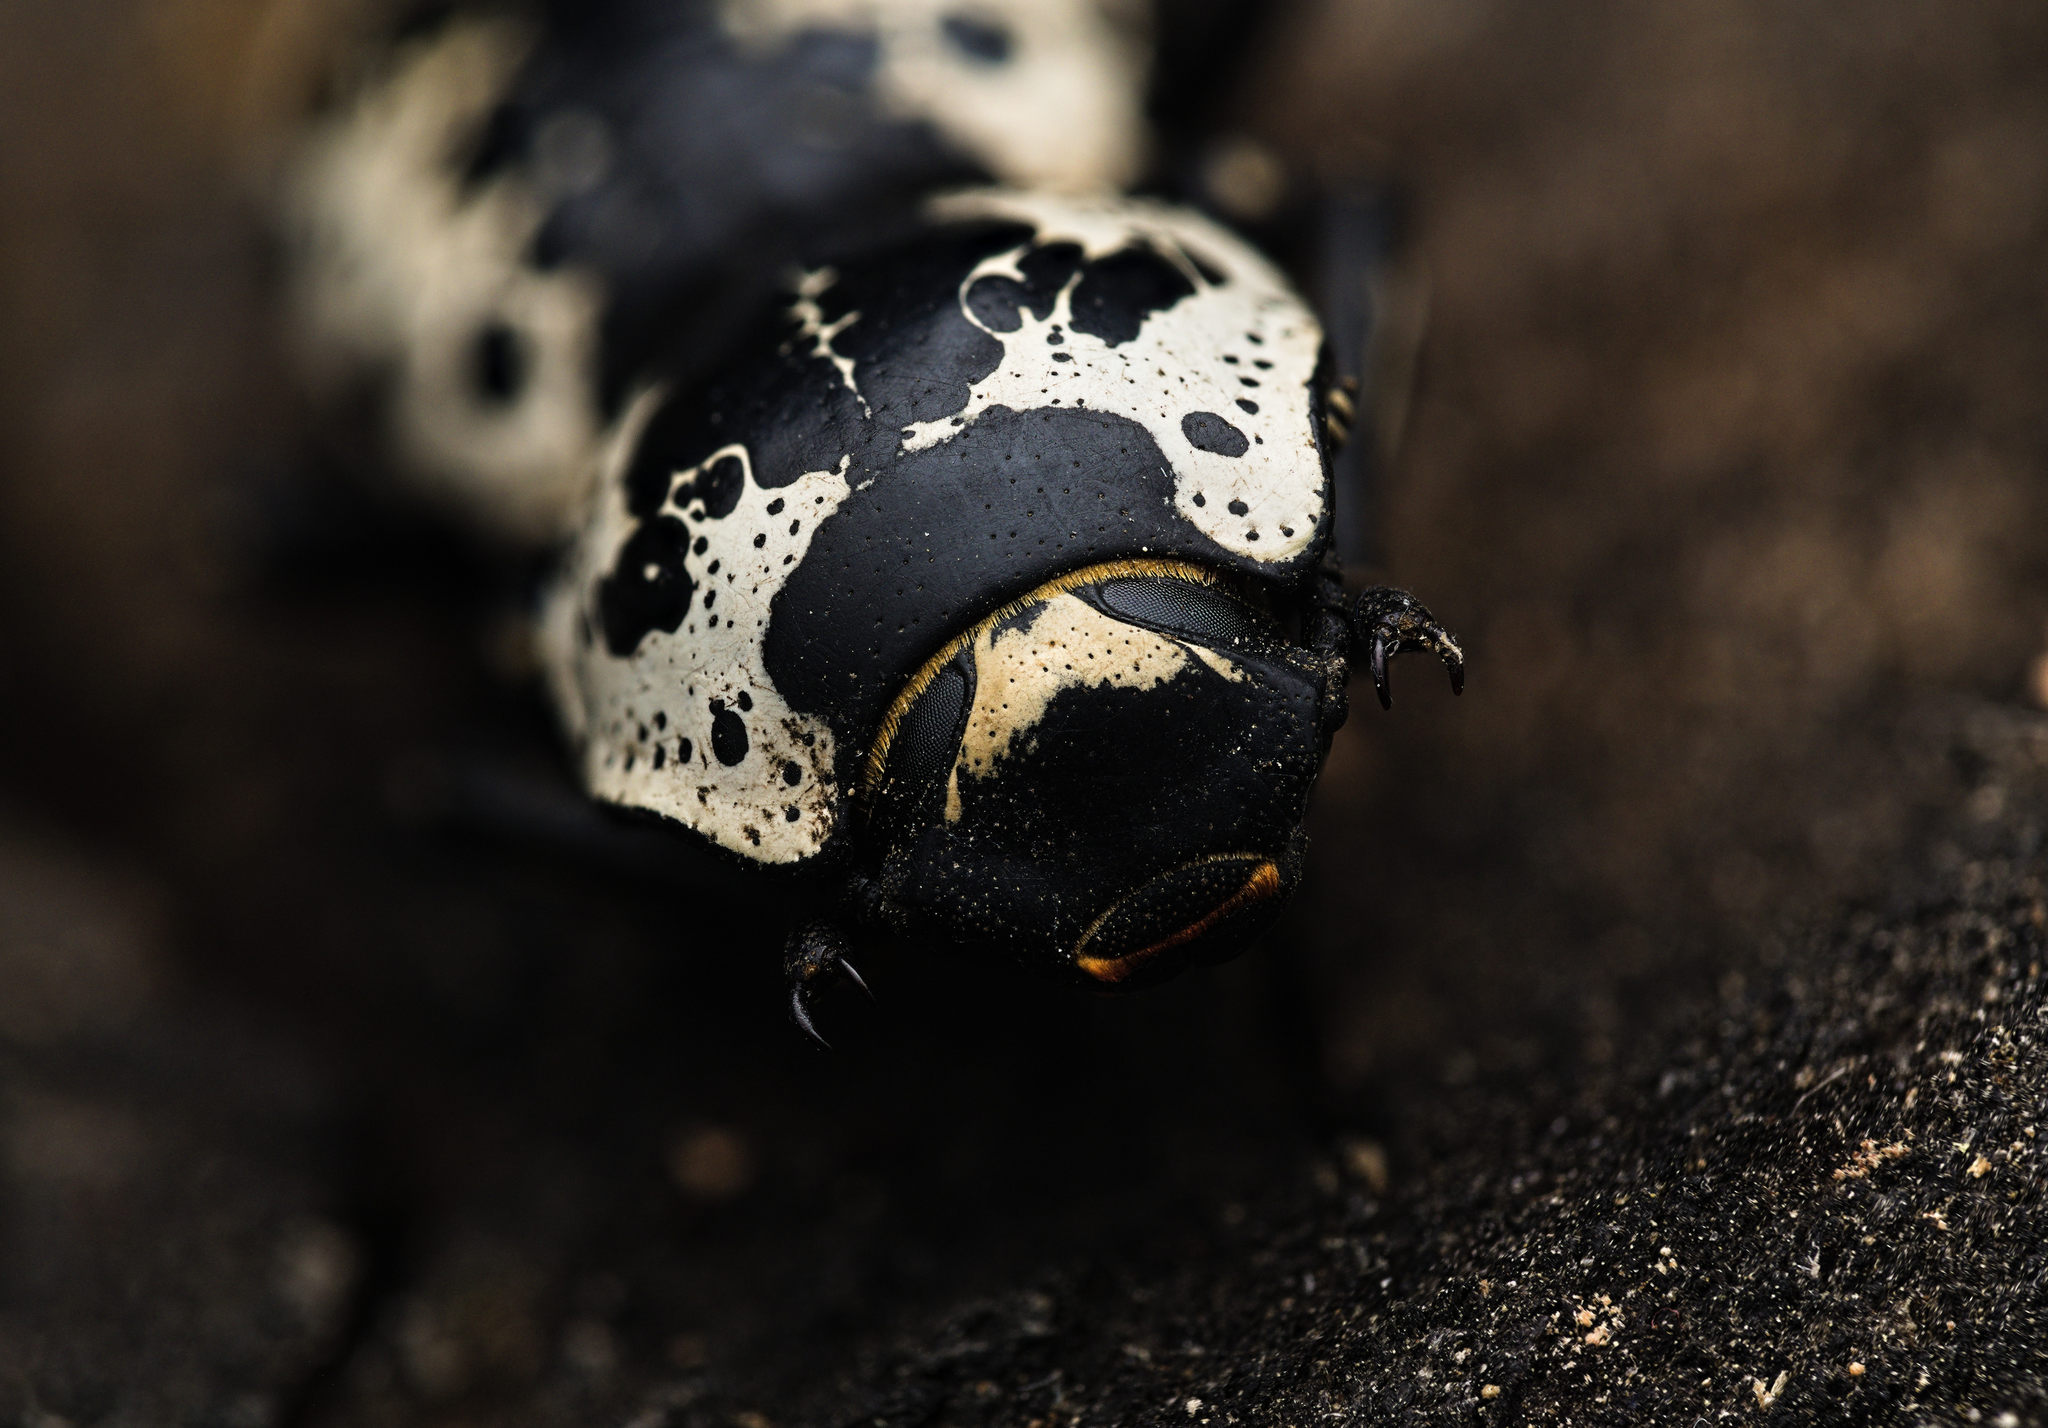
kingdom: Animalia
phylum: Arthropoda
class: Insecta
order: Coleoptera
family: Zopheridae
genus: Zopherus
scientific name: Zopherus nodulosus
